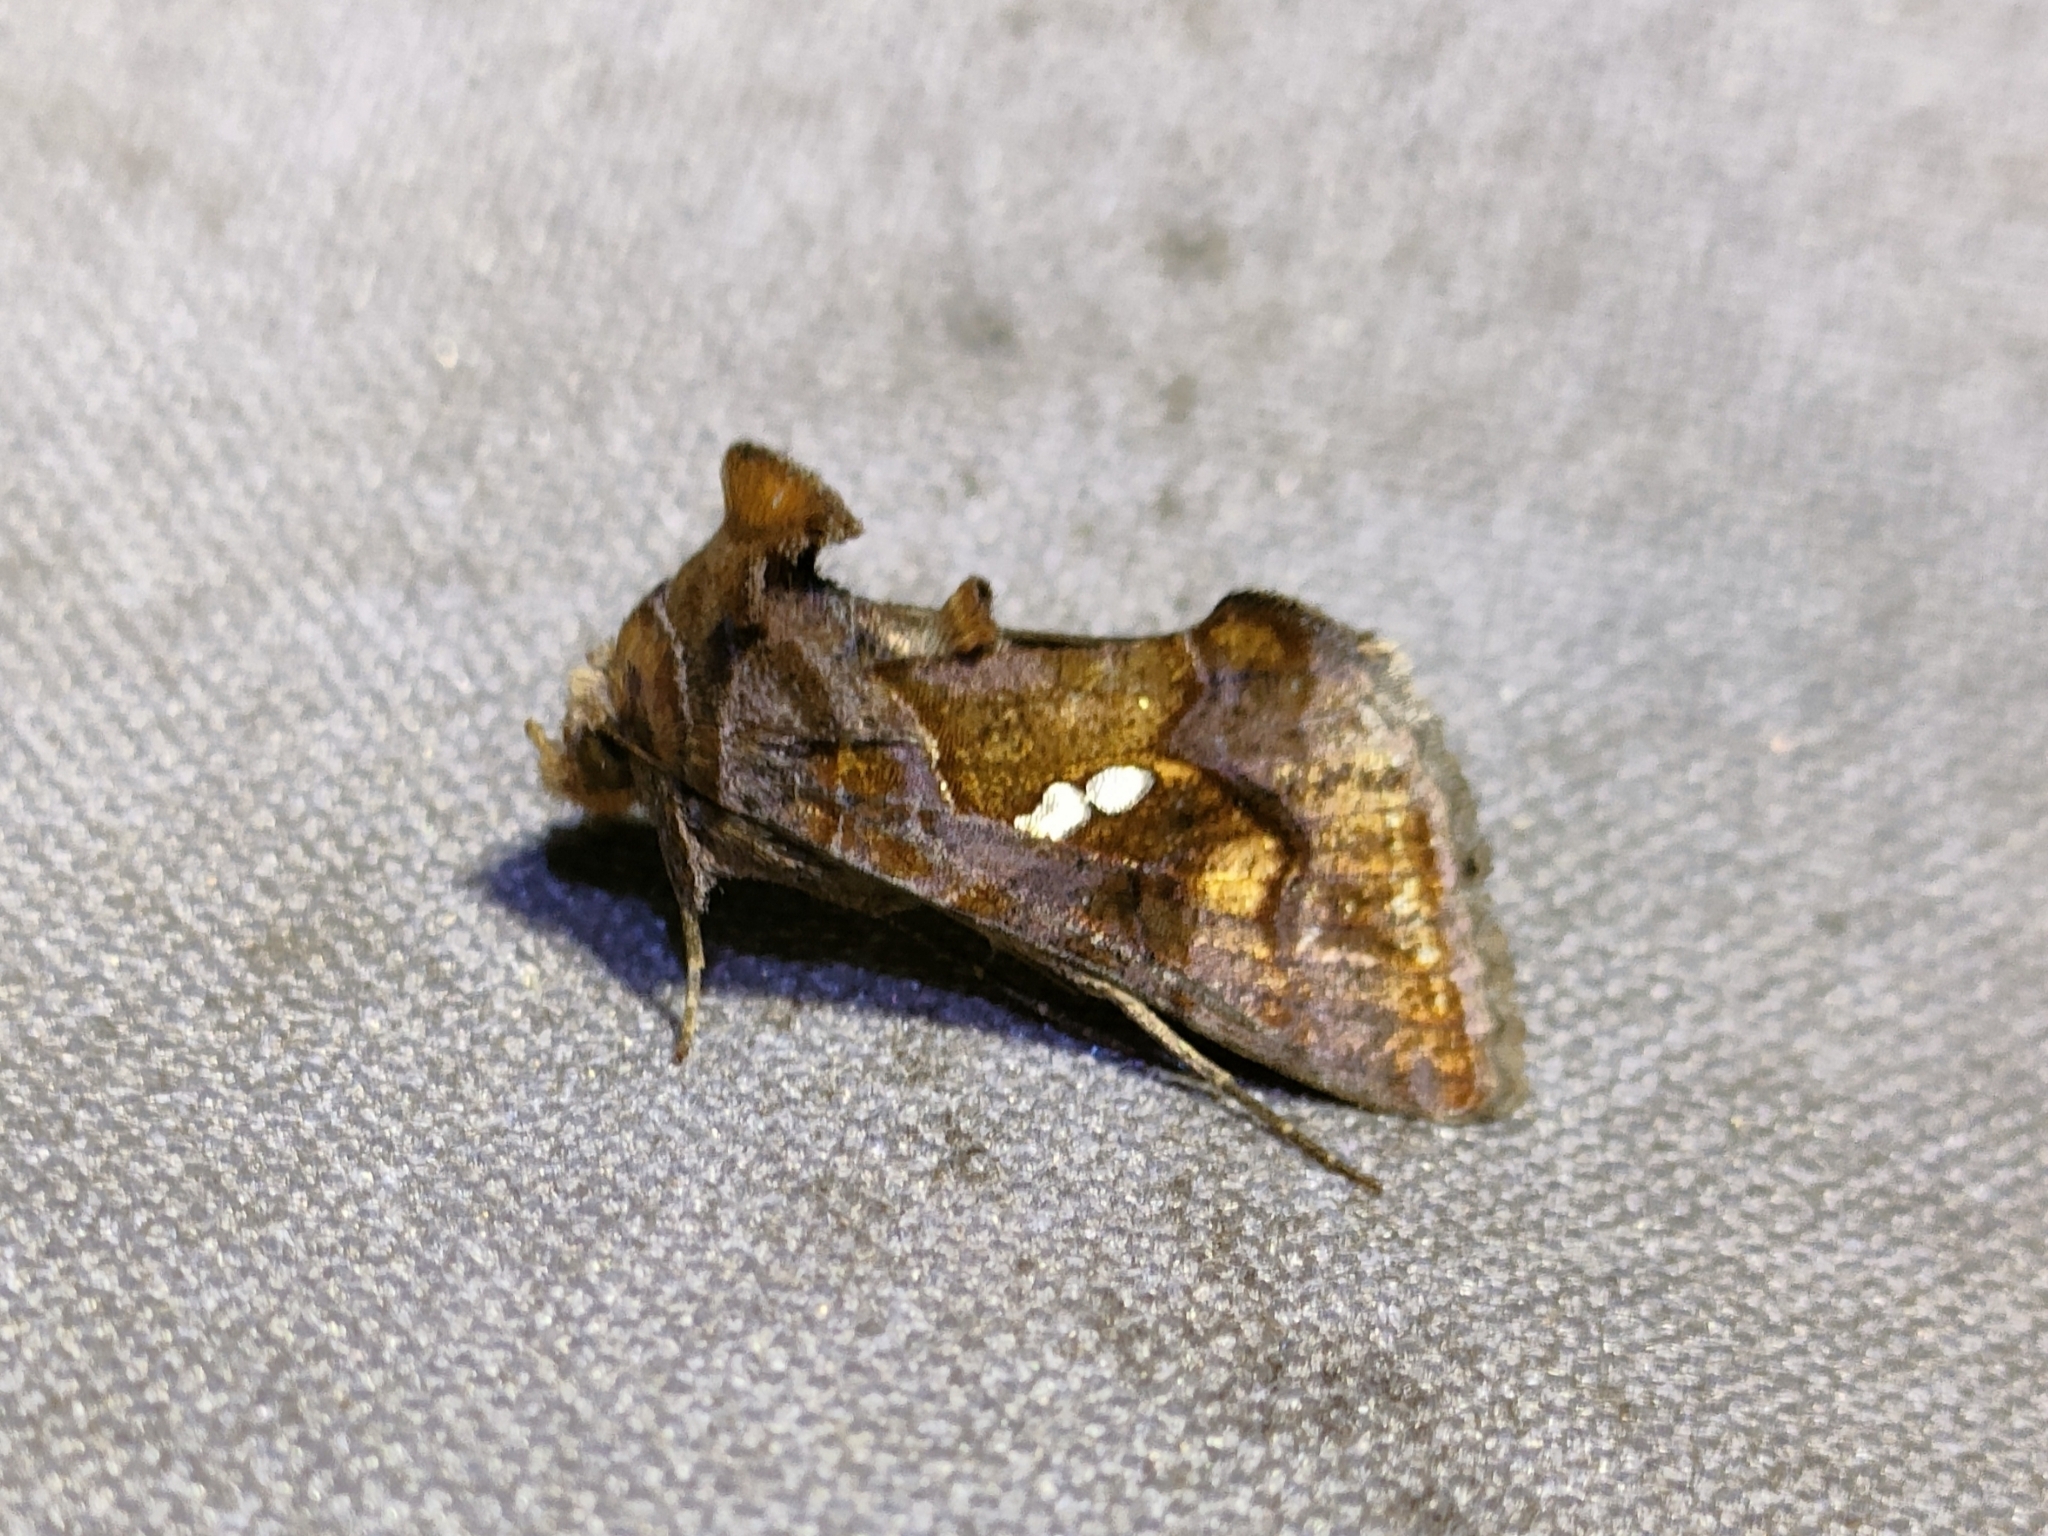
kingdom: Animalia
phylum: Arthropoda
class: Insecta
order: Lepidoptera
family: Noctuidae
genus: Chrysodeixis
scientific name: Chrysodeixis chalcites
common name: Golden twin-spot
